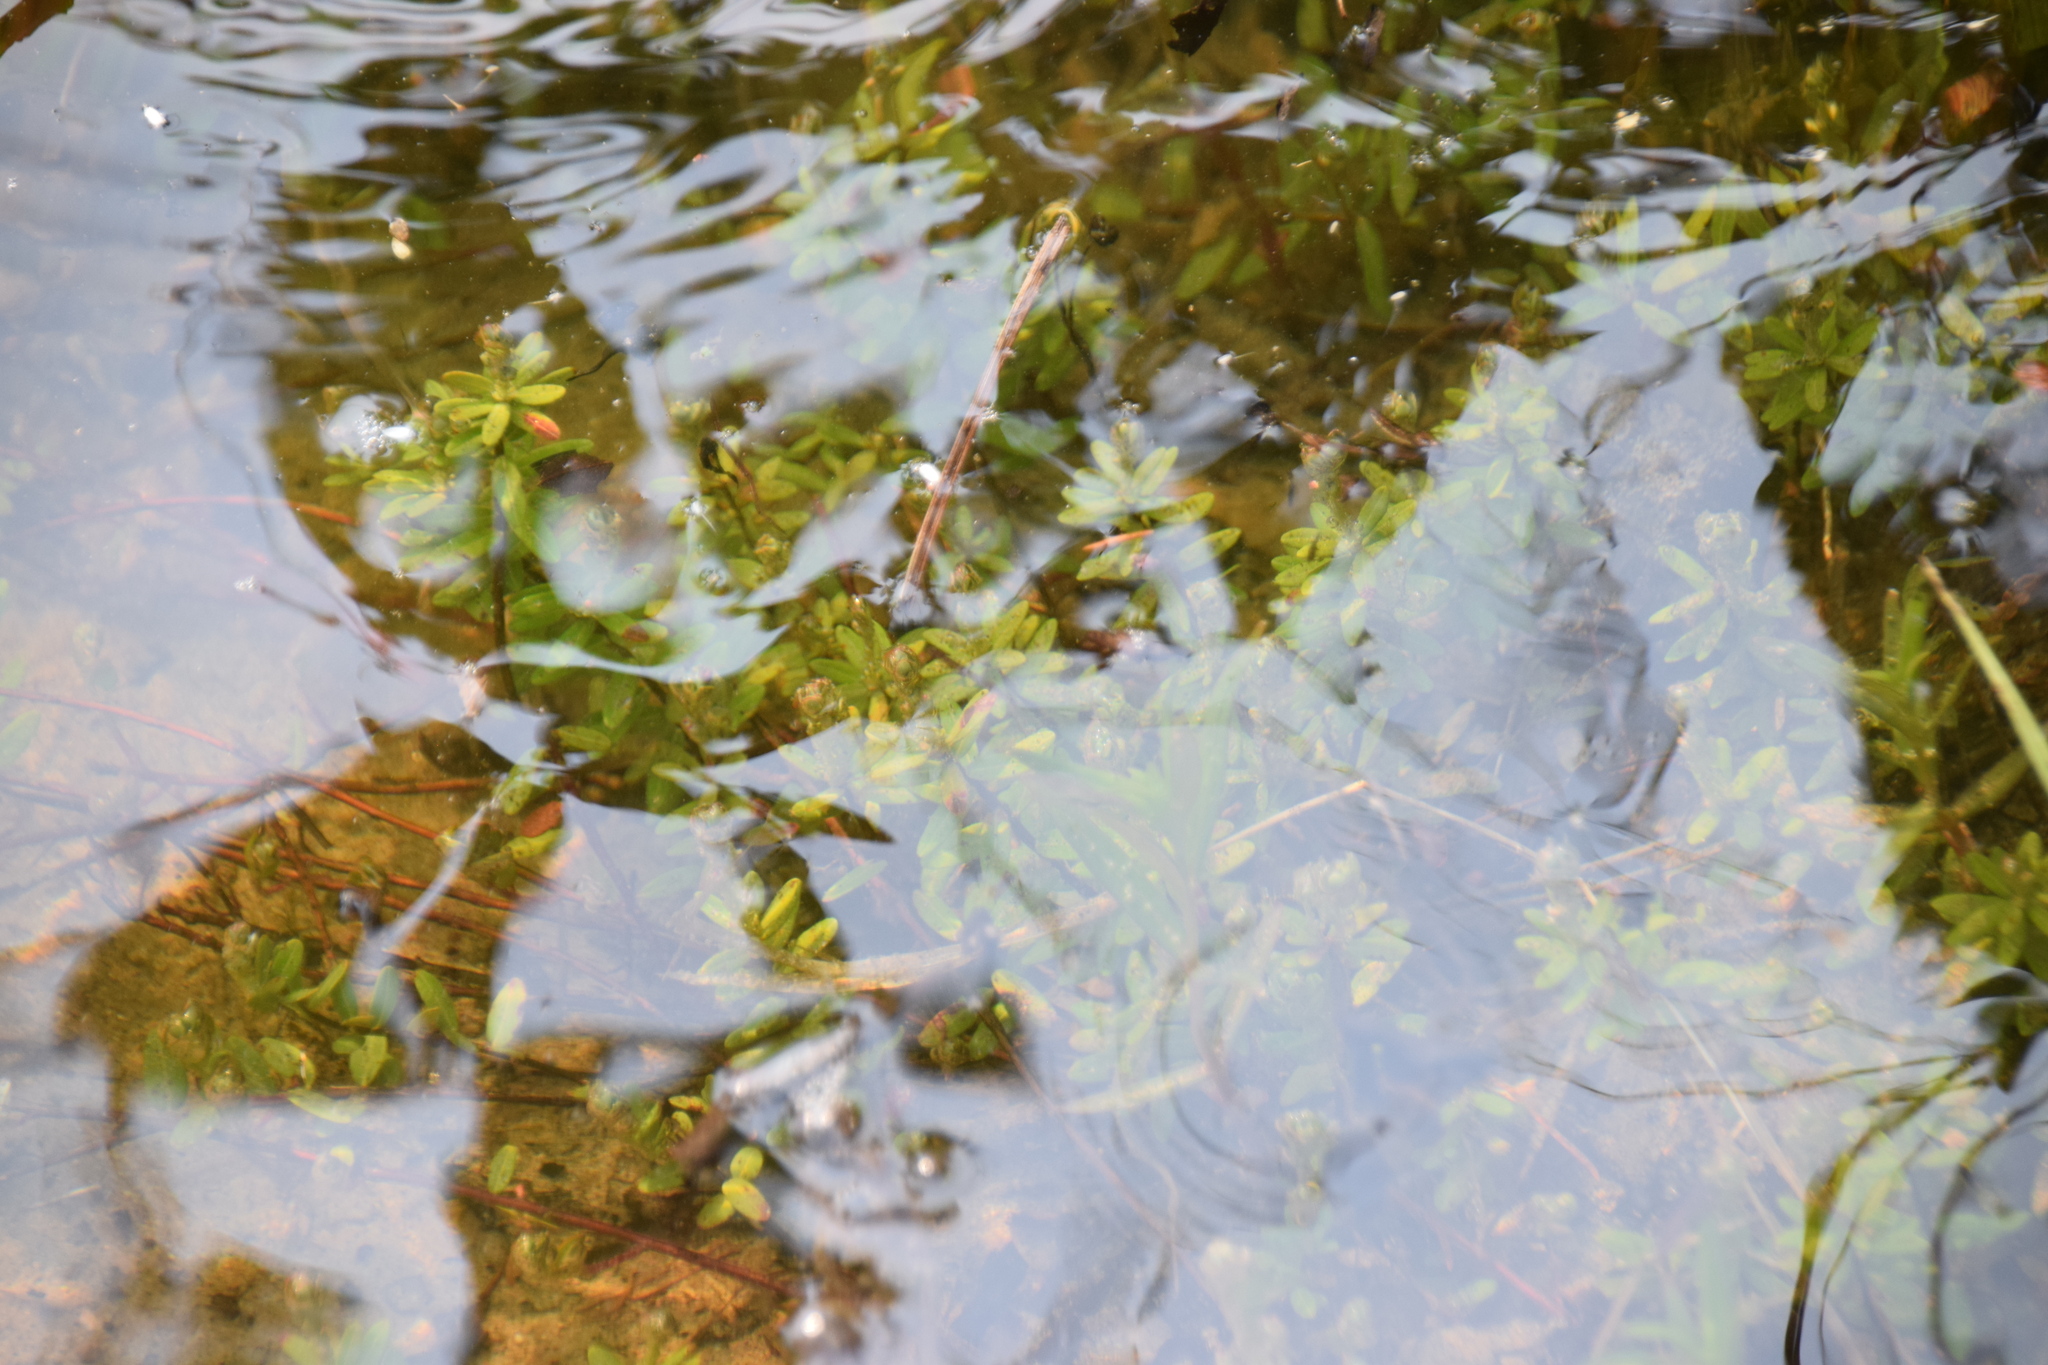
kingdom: Plantae
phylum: Tracheophyta
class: Magnoliopsida
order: Ericales
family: Ericaceae
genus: Vaccinium
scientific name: Vaccinium macrocarpon
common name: American cranberry
